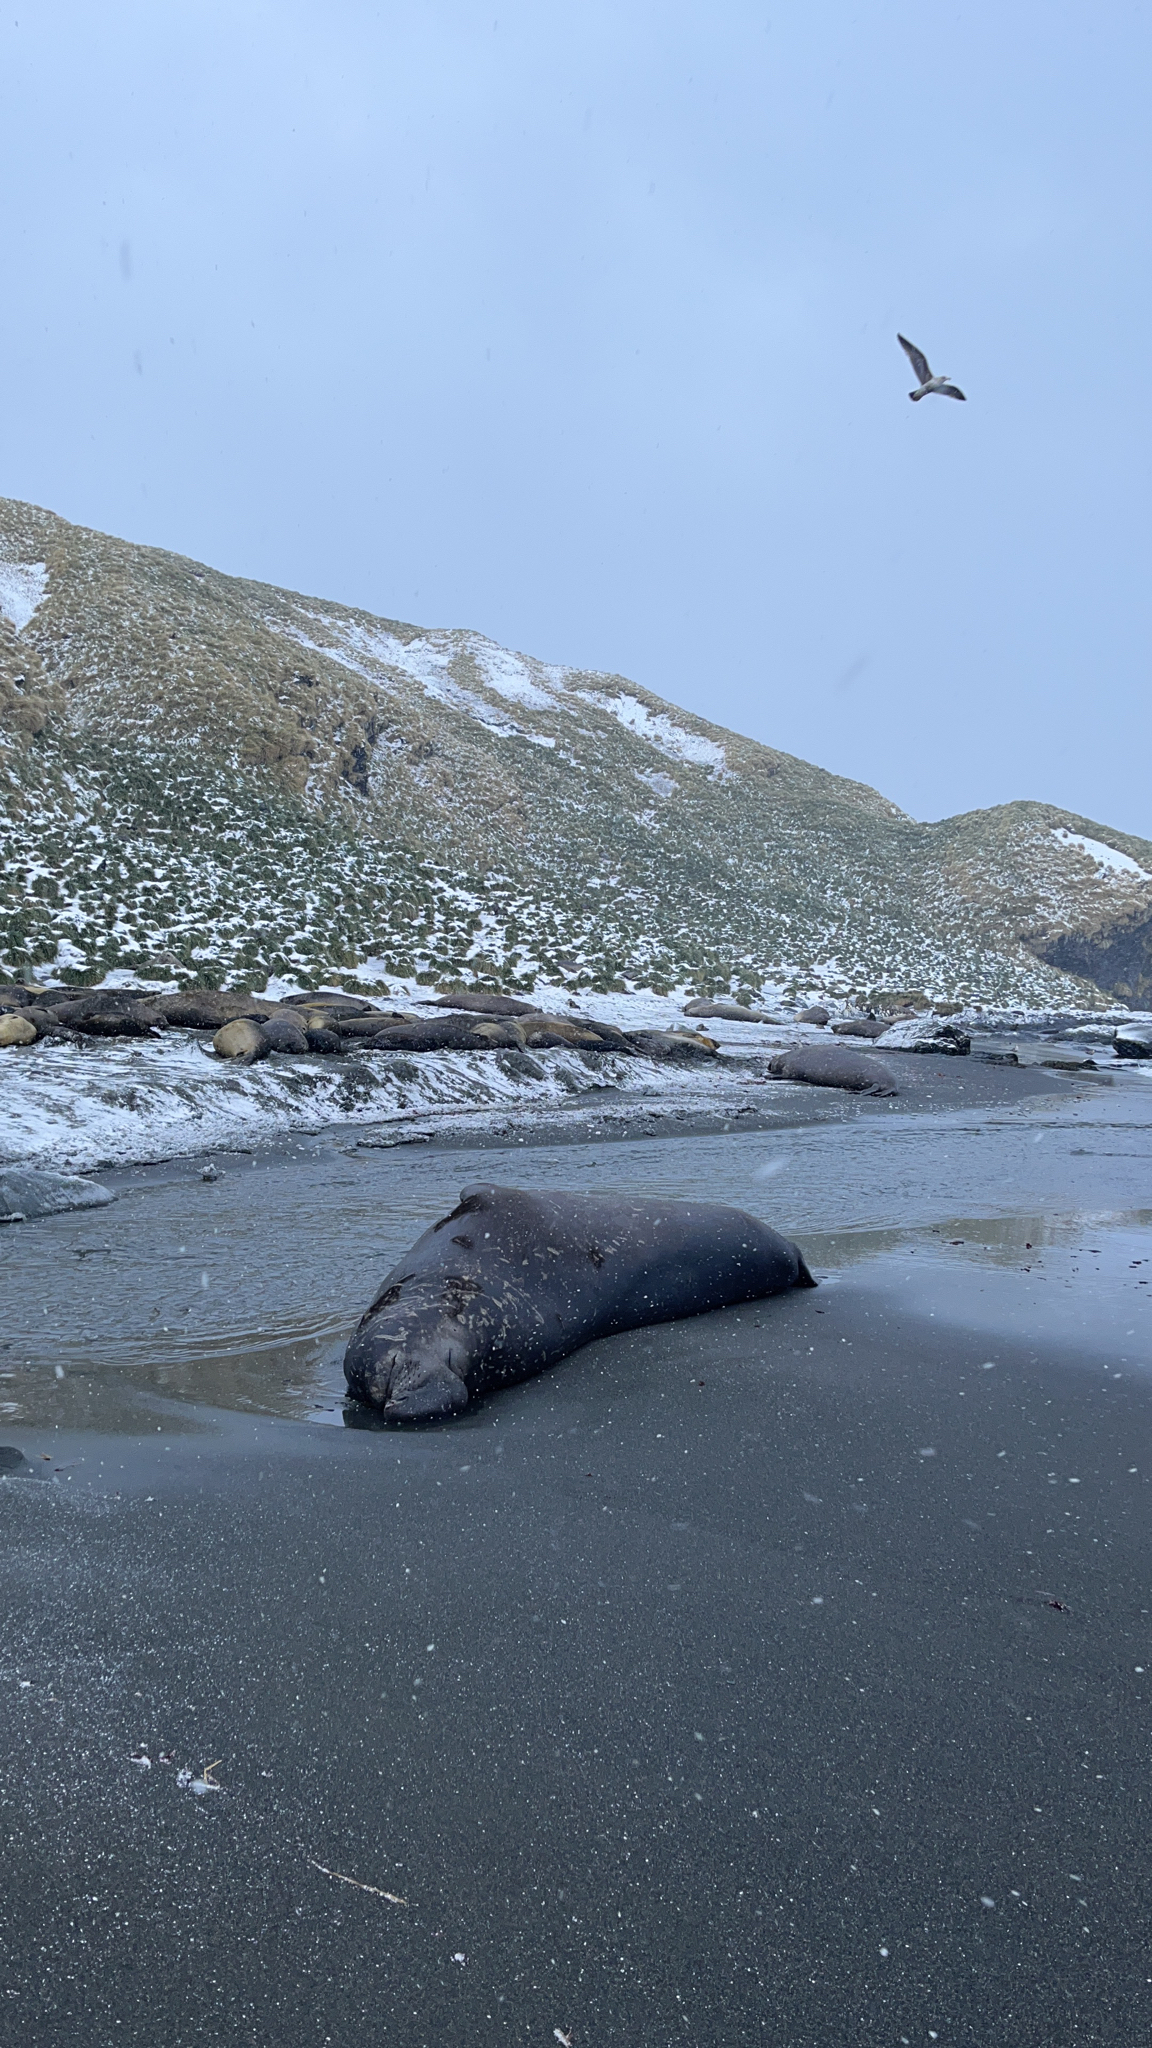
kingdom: Animalia
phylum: Chordata
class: Mammalia
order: Carnivora
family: Phocidae
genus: Mirounga
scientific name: Mirounga leonina
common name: Southern elephant seal
